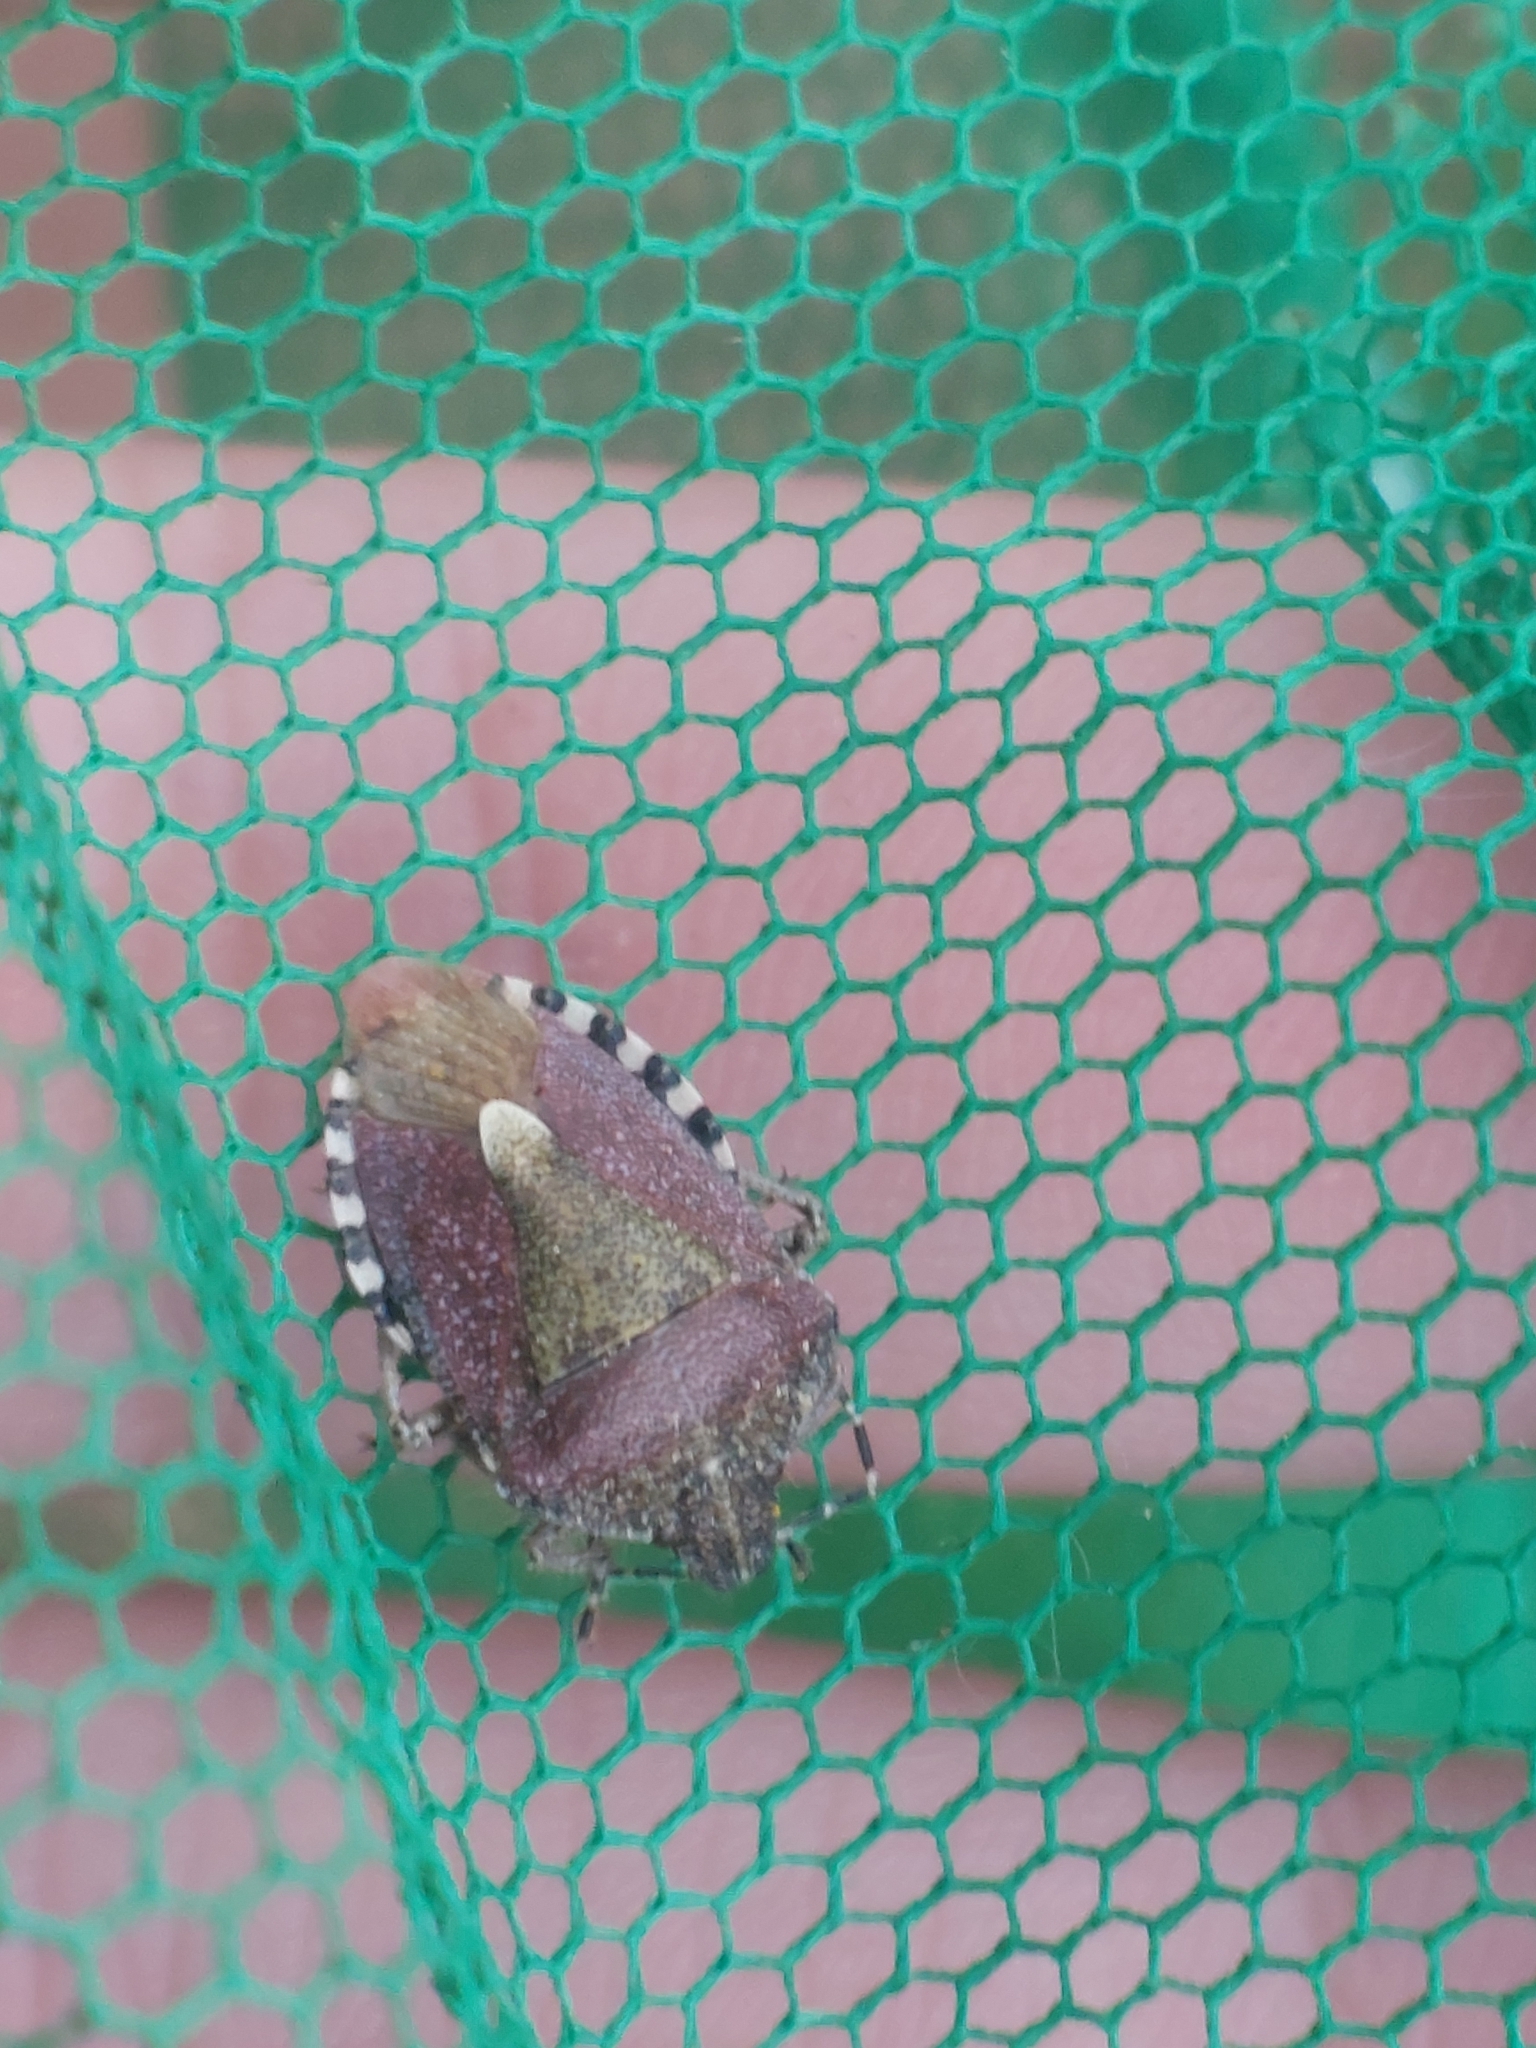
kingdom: Animalia
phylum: Arthropoda
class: Insecta
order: Hemiptera
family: Pentatomidae
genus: Dolycoris
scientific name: Dolycoris baccarum
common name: Sloe bug
